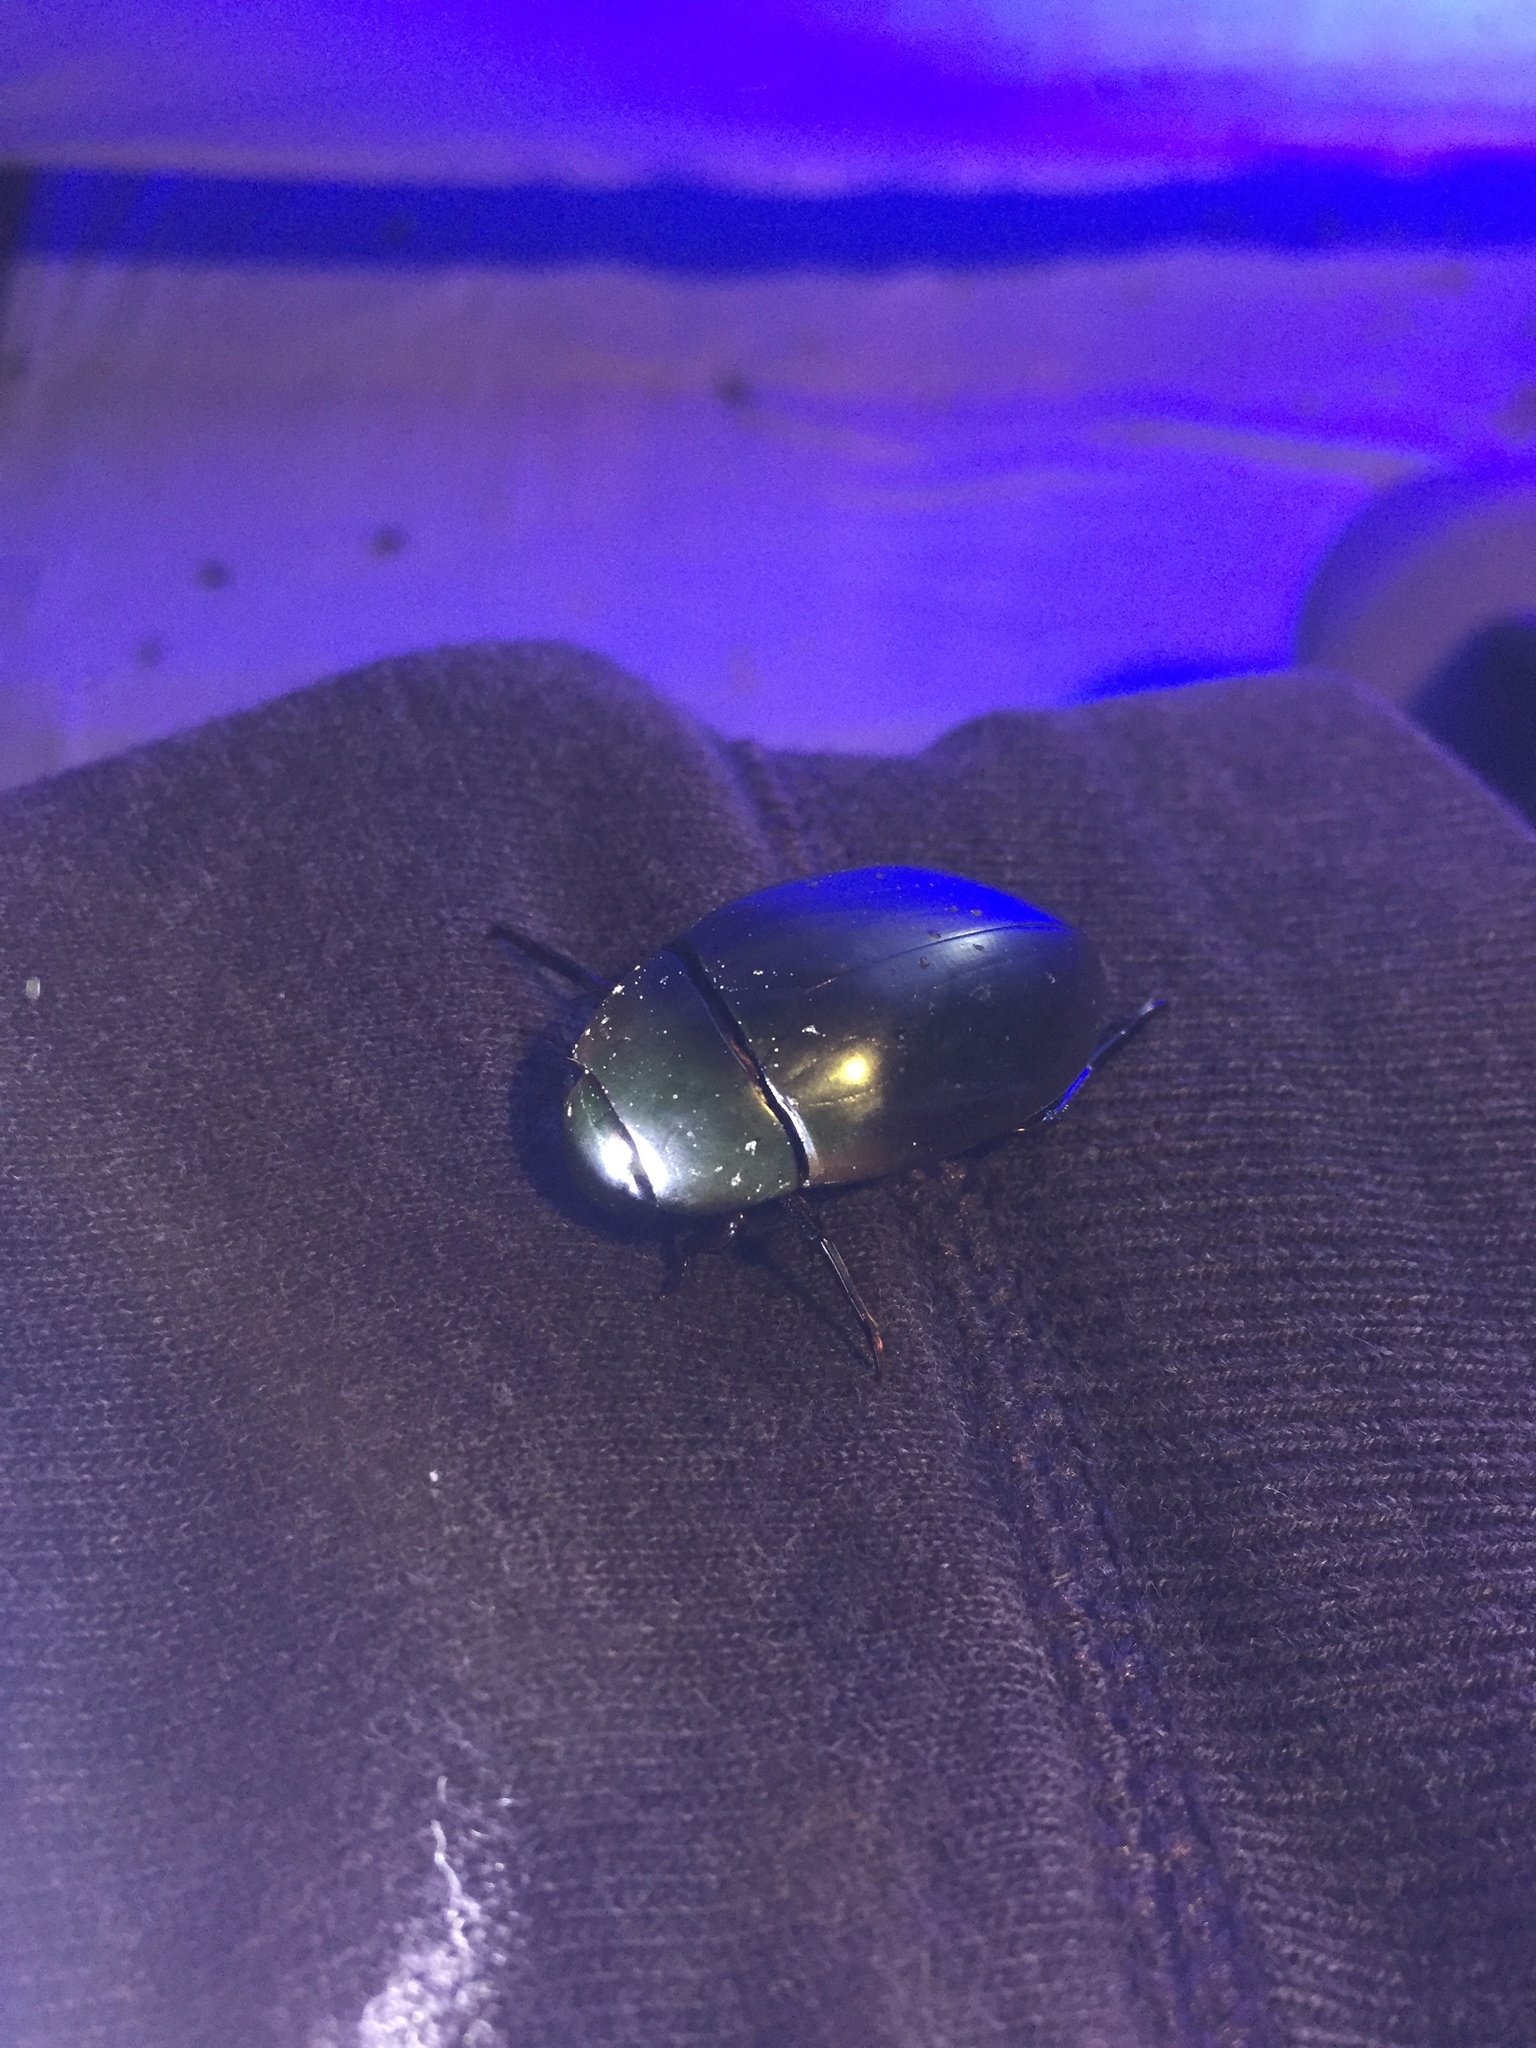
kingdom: Animalia
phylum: Arthropoda
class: Insecta
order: Coleoptera
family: Hydrophilidae
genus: Hydrophilus
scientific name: Hydrophilus triangularis
